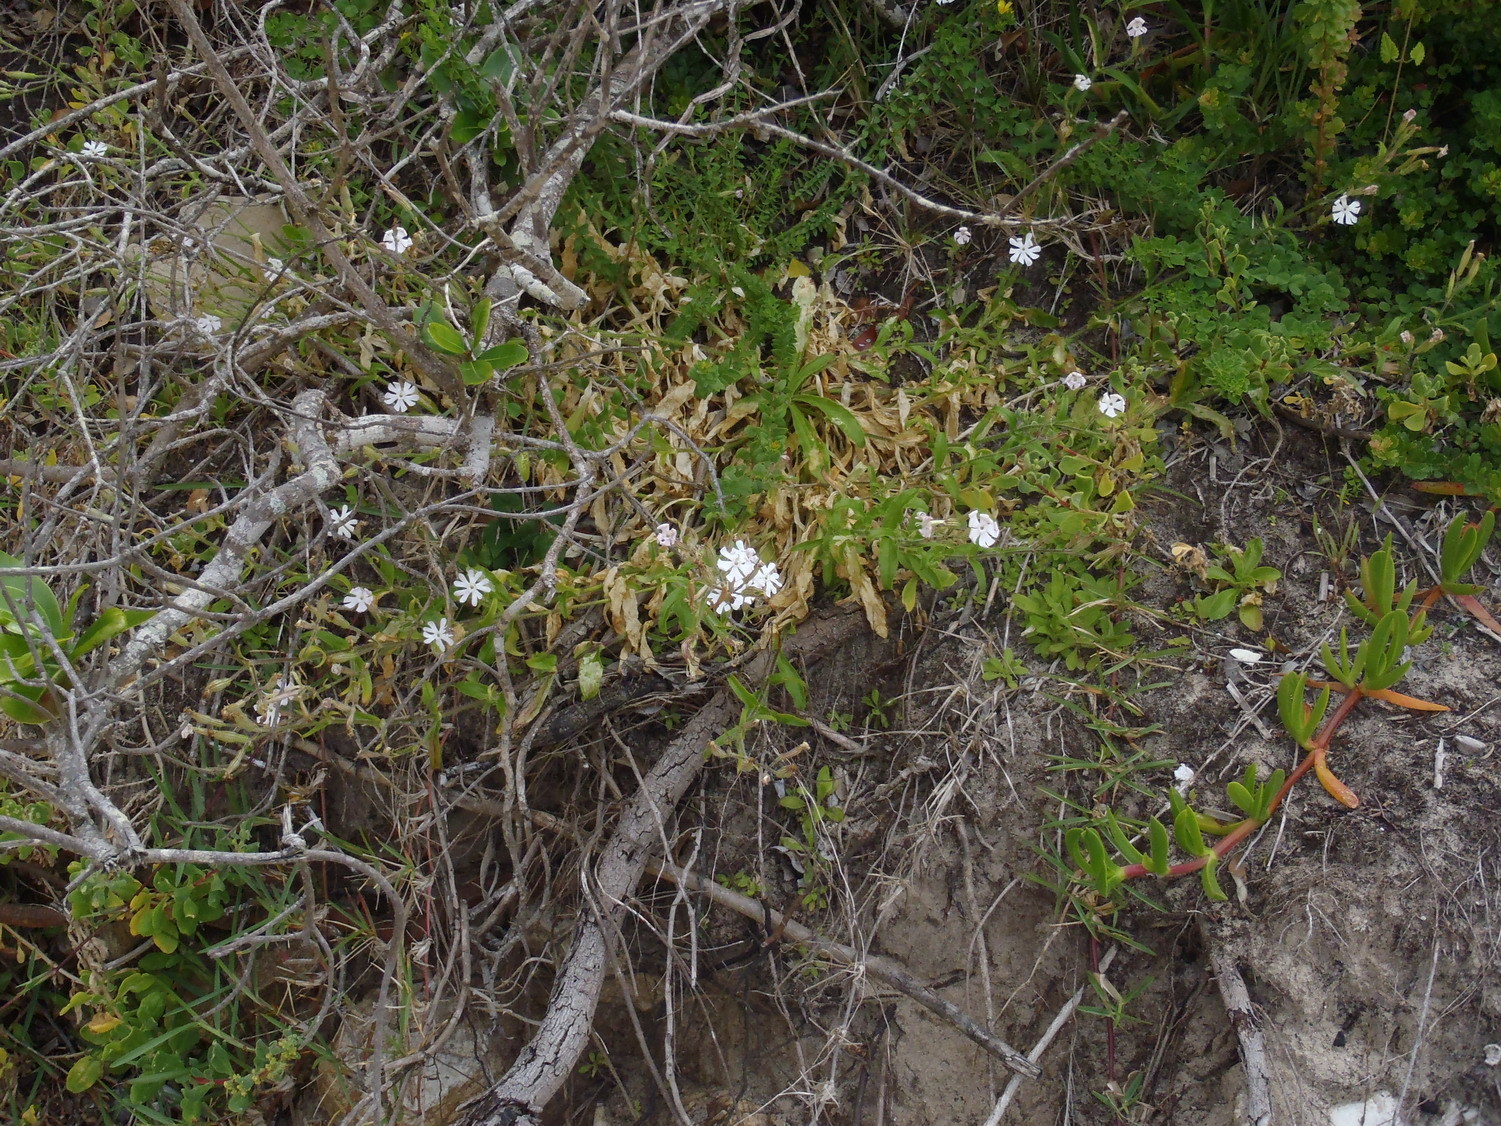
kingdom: Plantae
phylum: Tracheophyta
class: Magnoliopsida
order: Caryophyllales
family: Caryophyllaceae
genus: Silene
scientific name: Silene undulata
